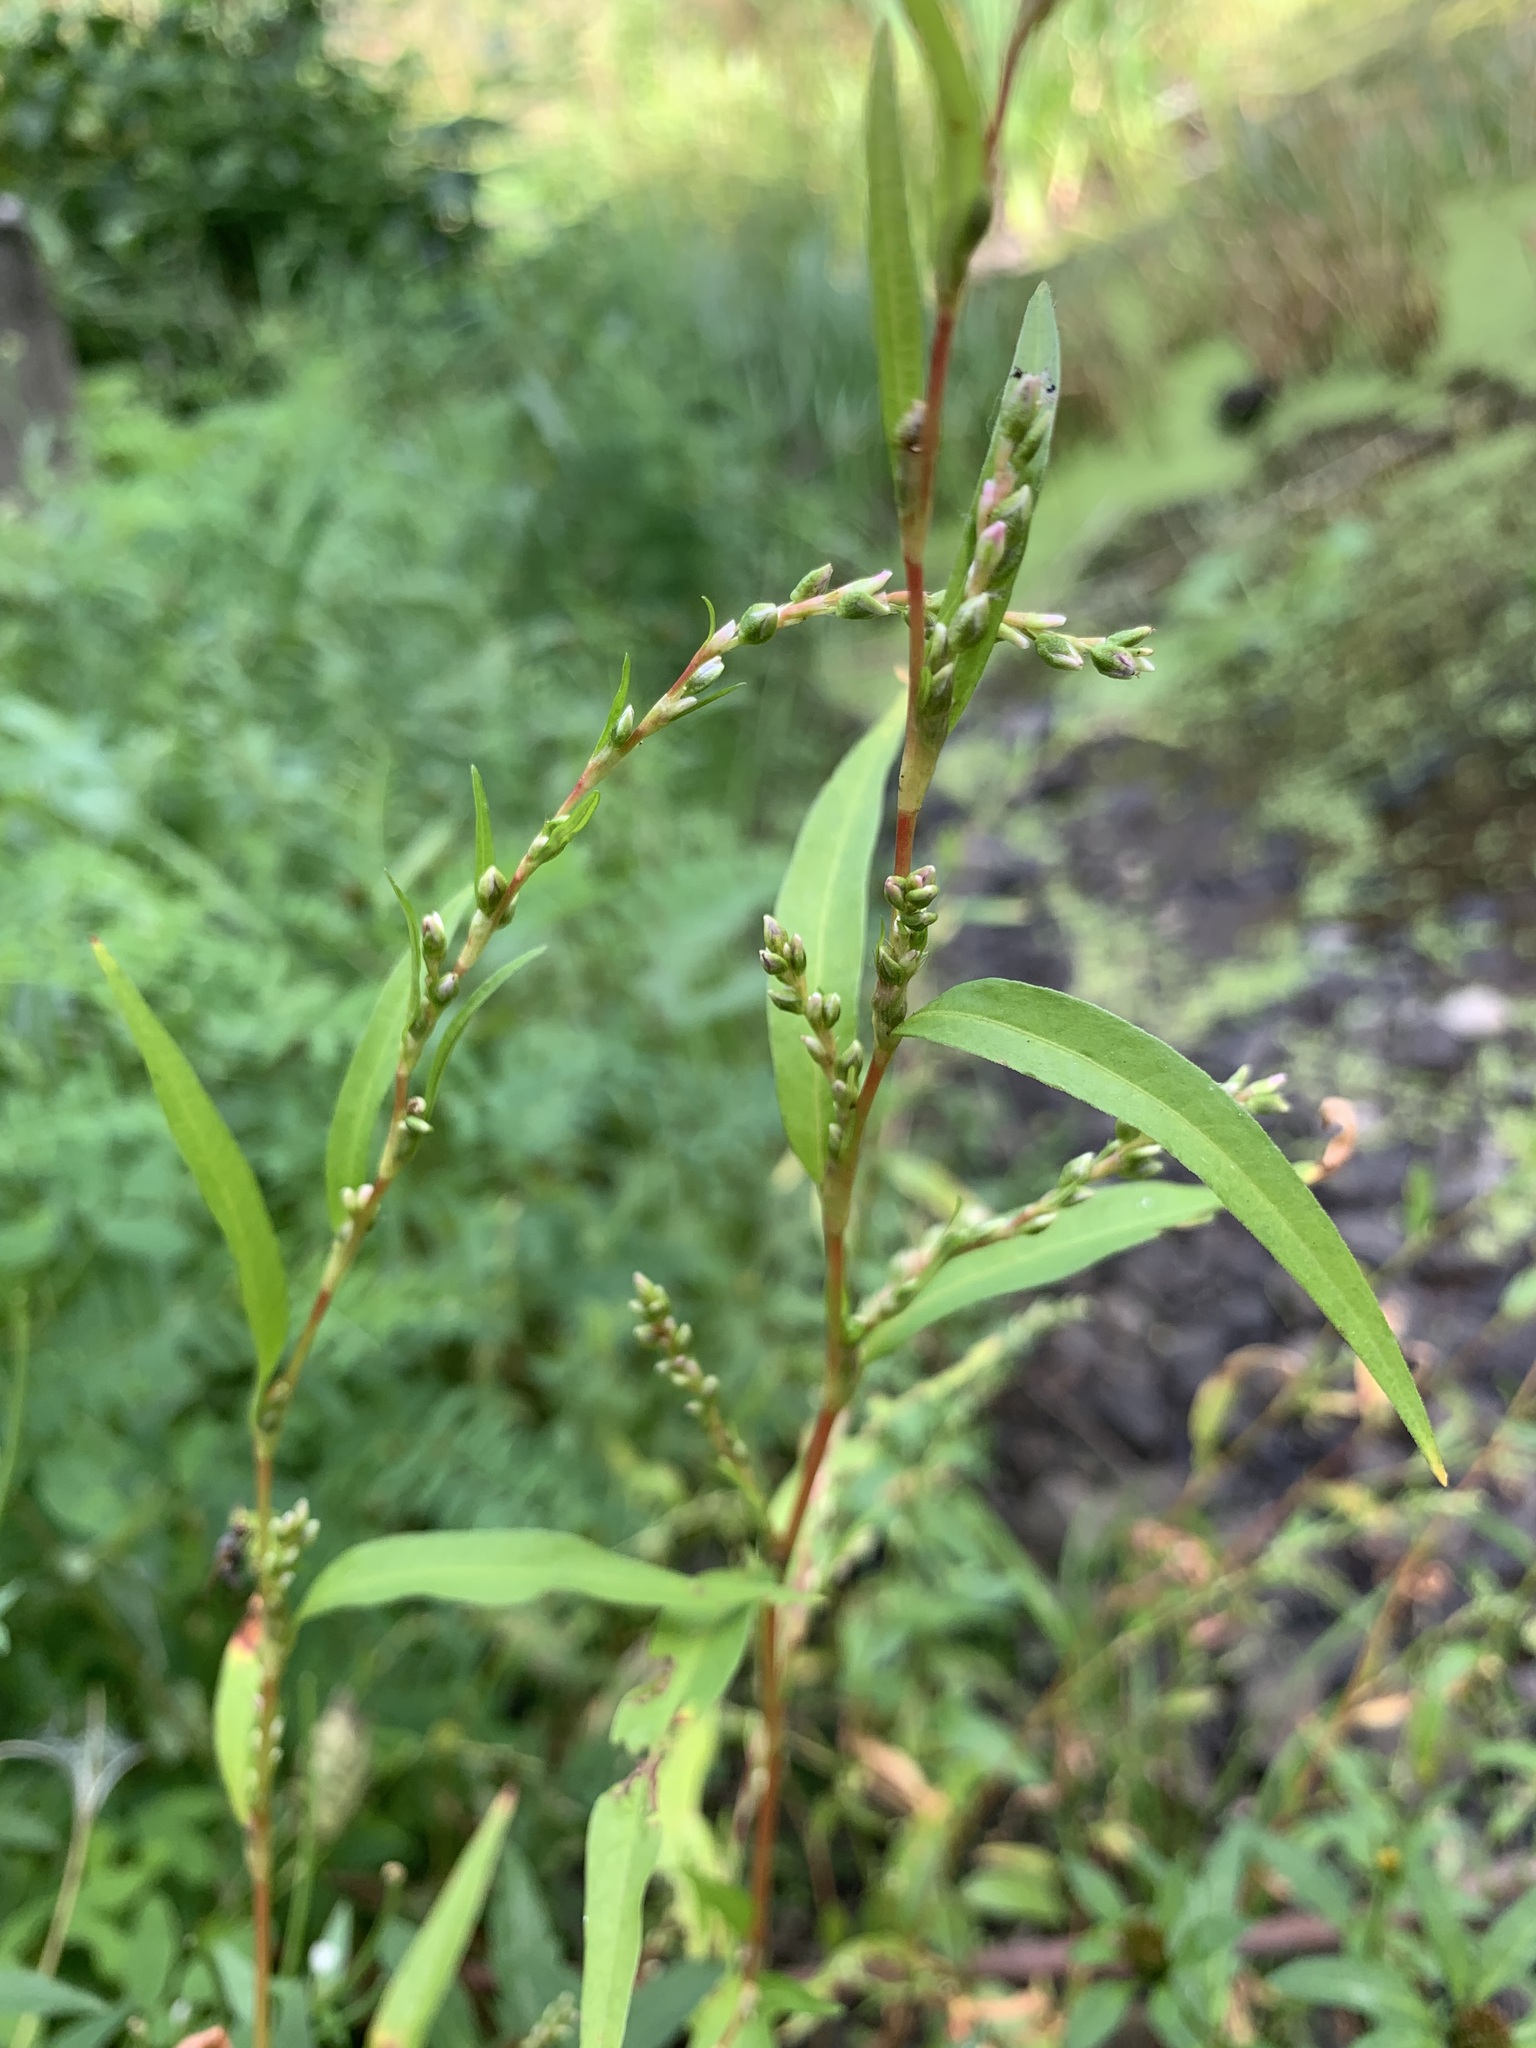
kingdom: Plantae
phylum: Tracheophyta
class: Magnoliopsida
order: Caryophyllales
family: Polygonaceae
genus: Persicaria
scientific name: Persicaria hydropiper
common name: Water-pepper
